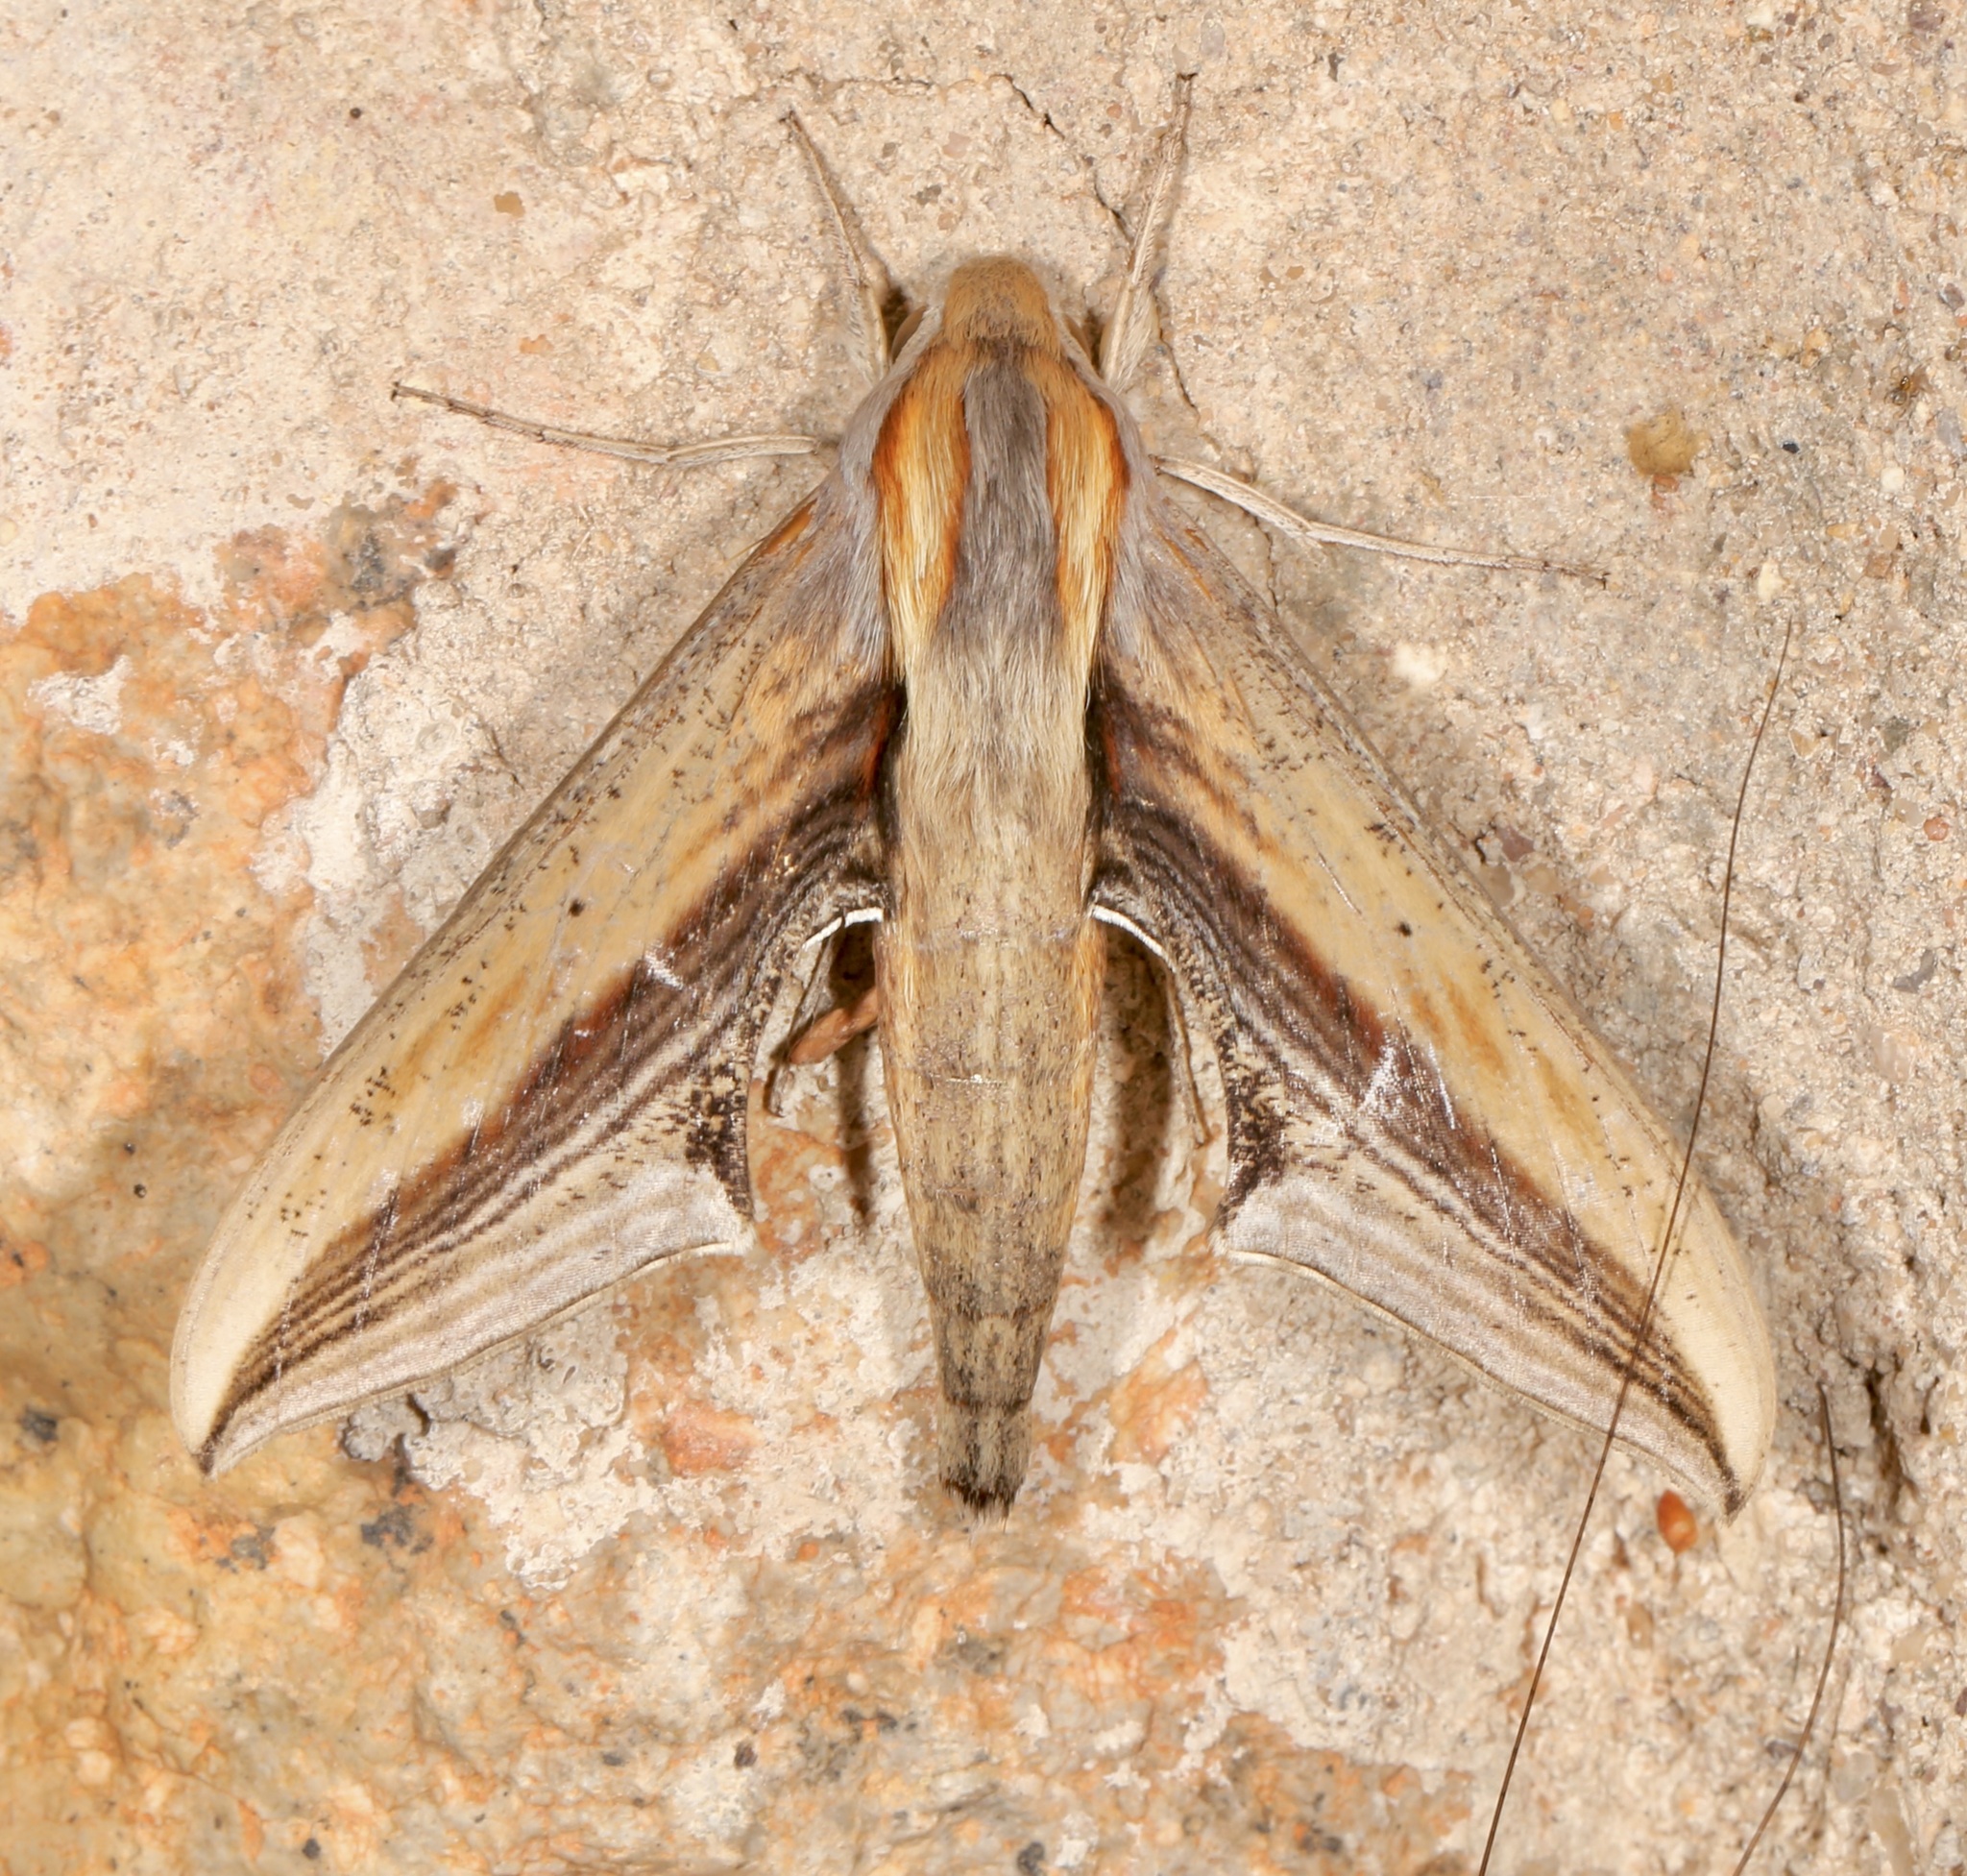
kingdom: Animalia
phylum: Arthropoda
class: Insecta
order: Lepidoptera
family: Sphingidae
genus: Xylophanes
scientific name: Xylophanes falco
